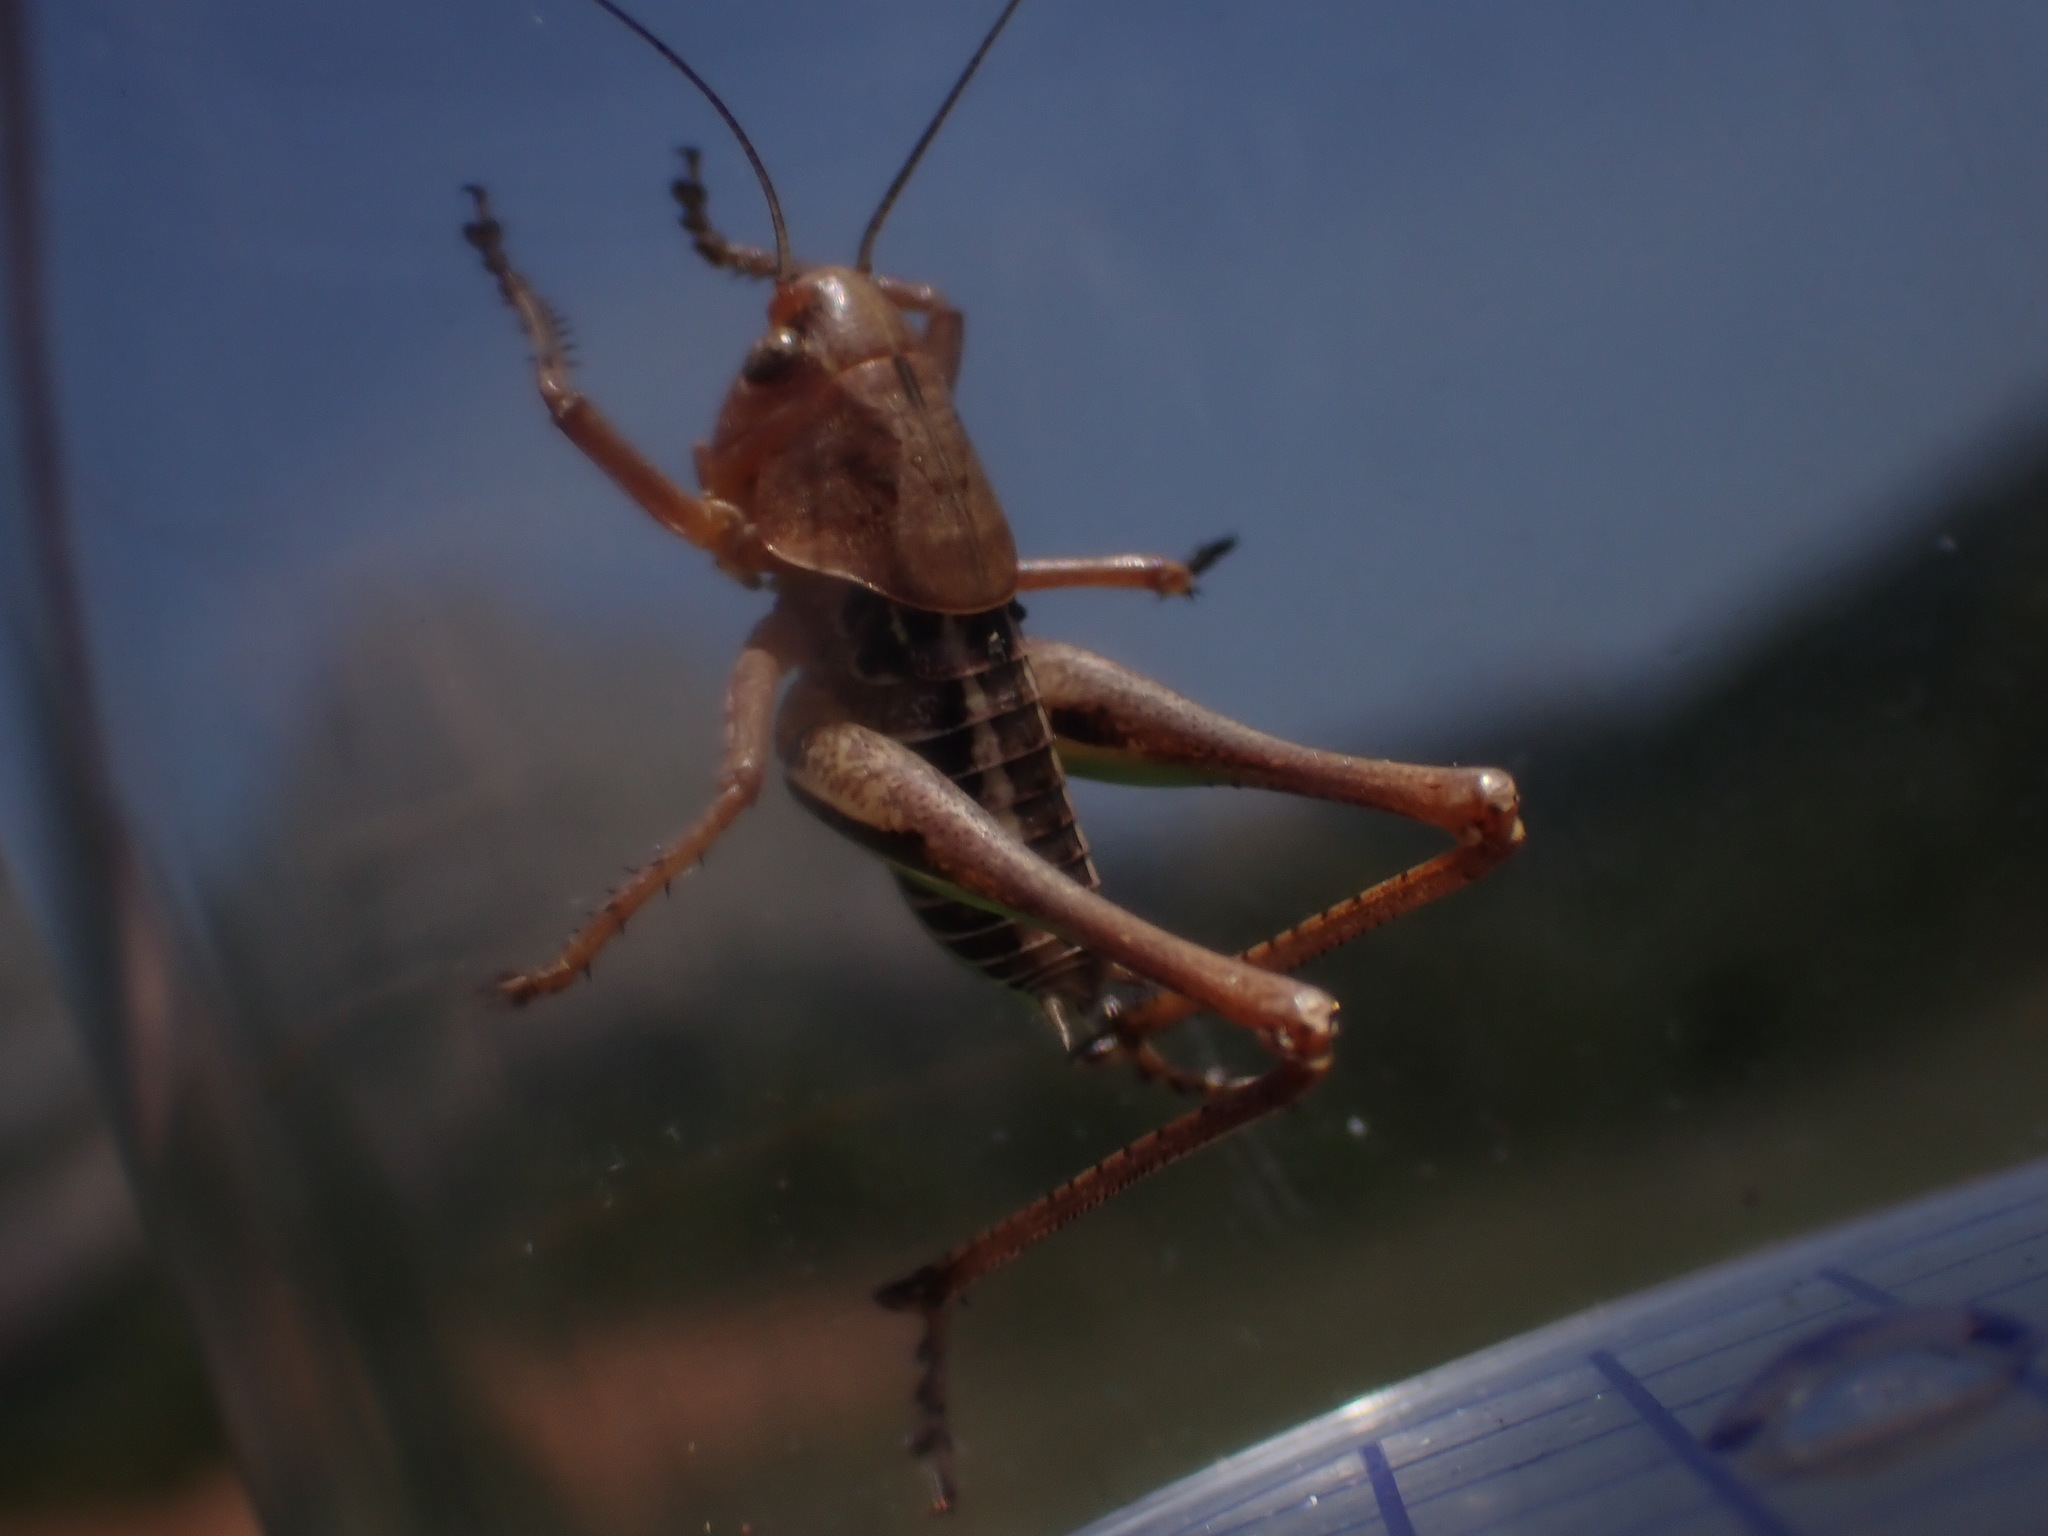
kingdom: Animalia
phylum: Arthropoda
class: Insecta
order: Orthoptera
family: Tettigoniidae
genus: Decticus
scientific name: Decticus albifrons
